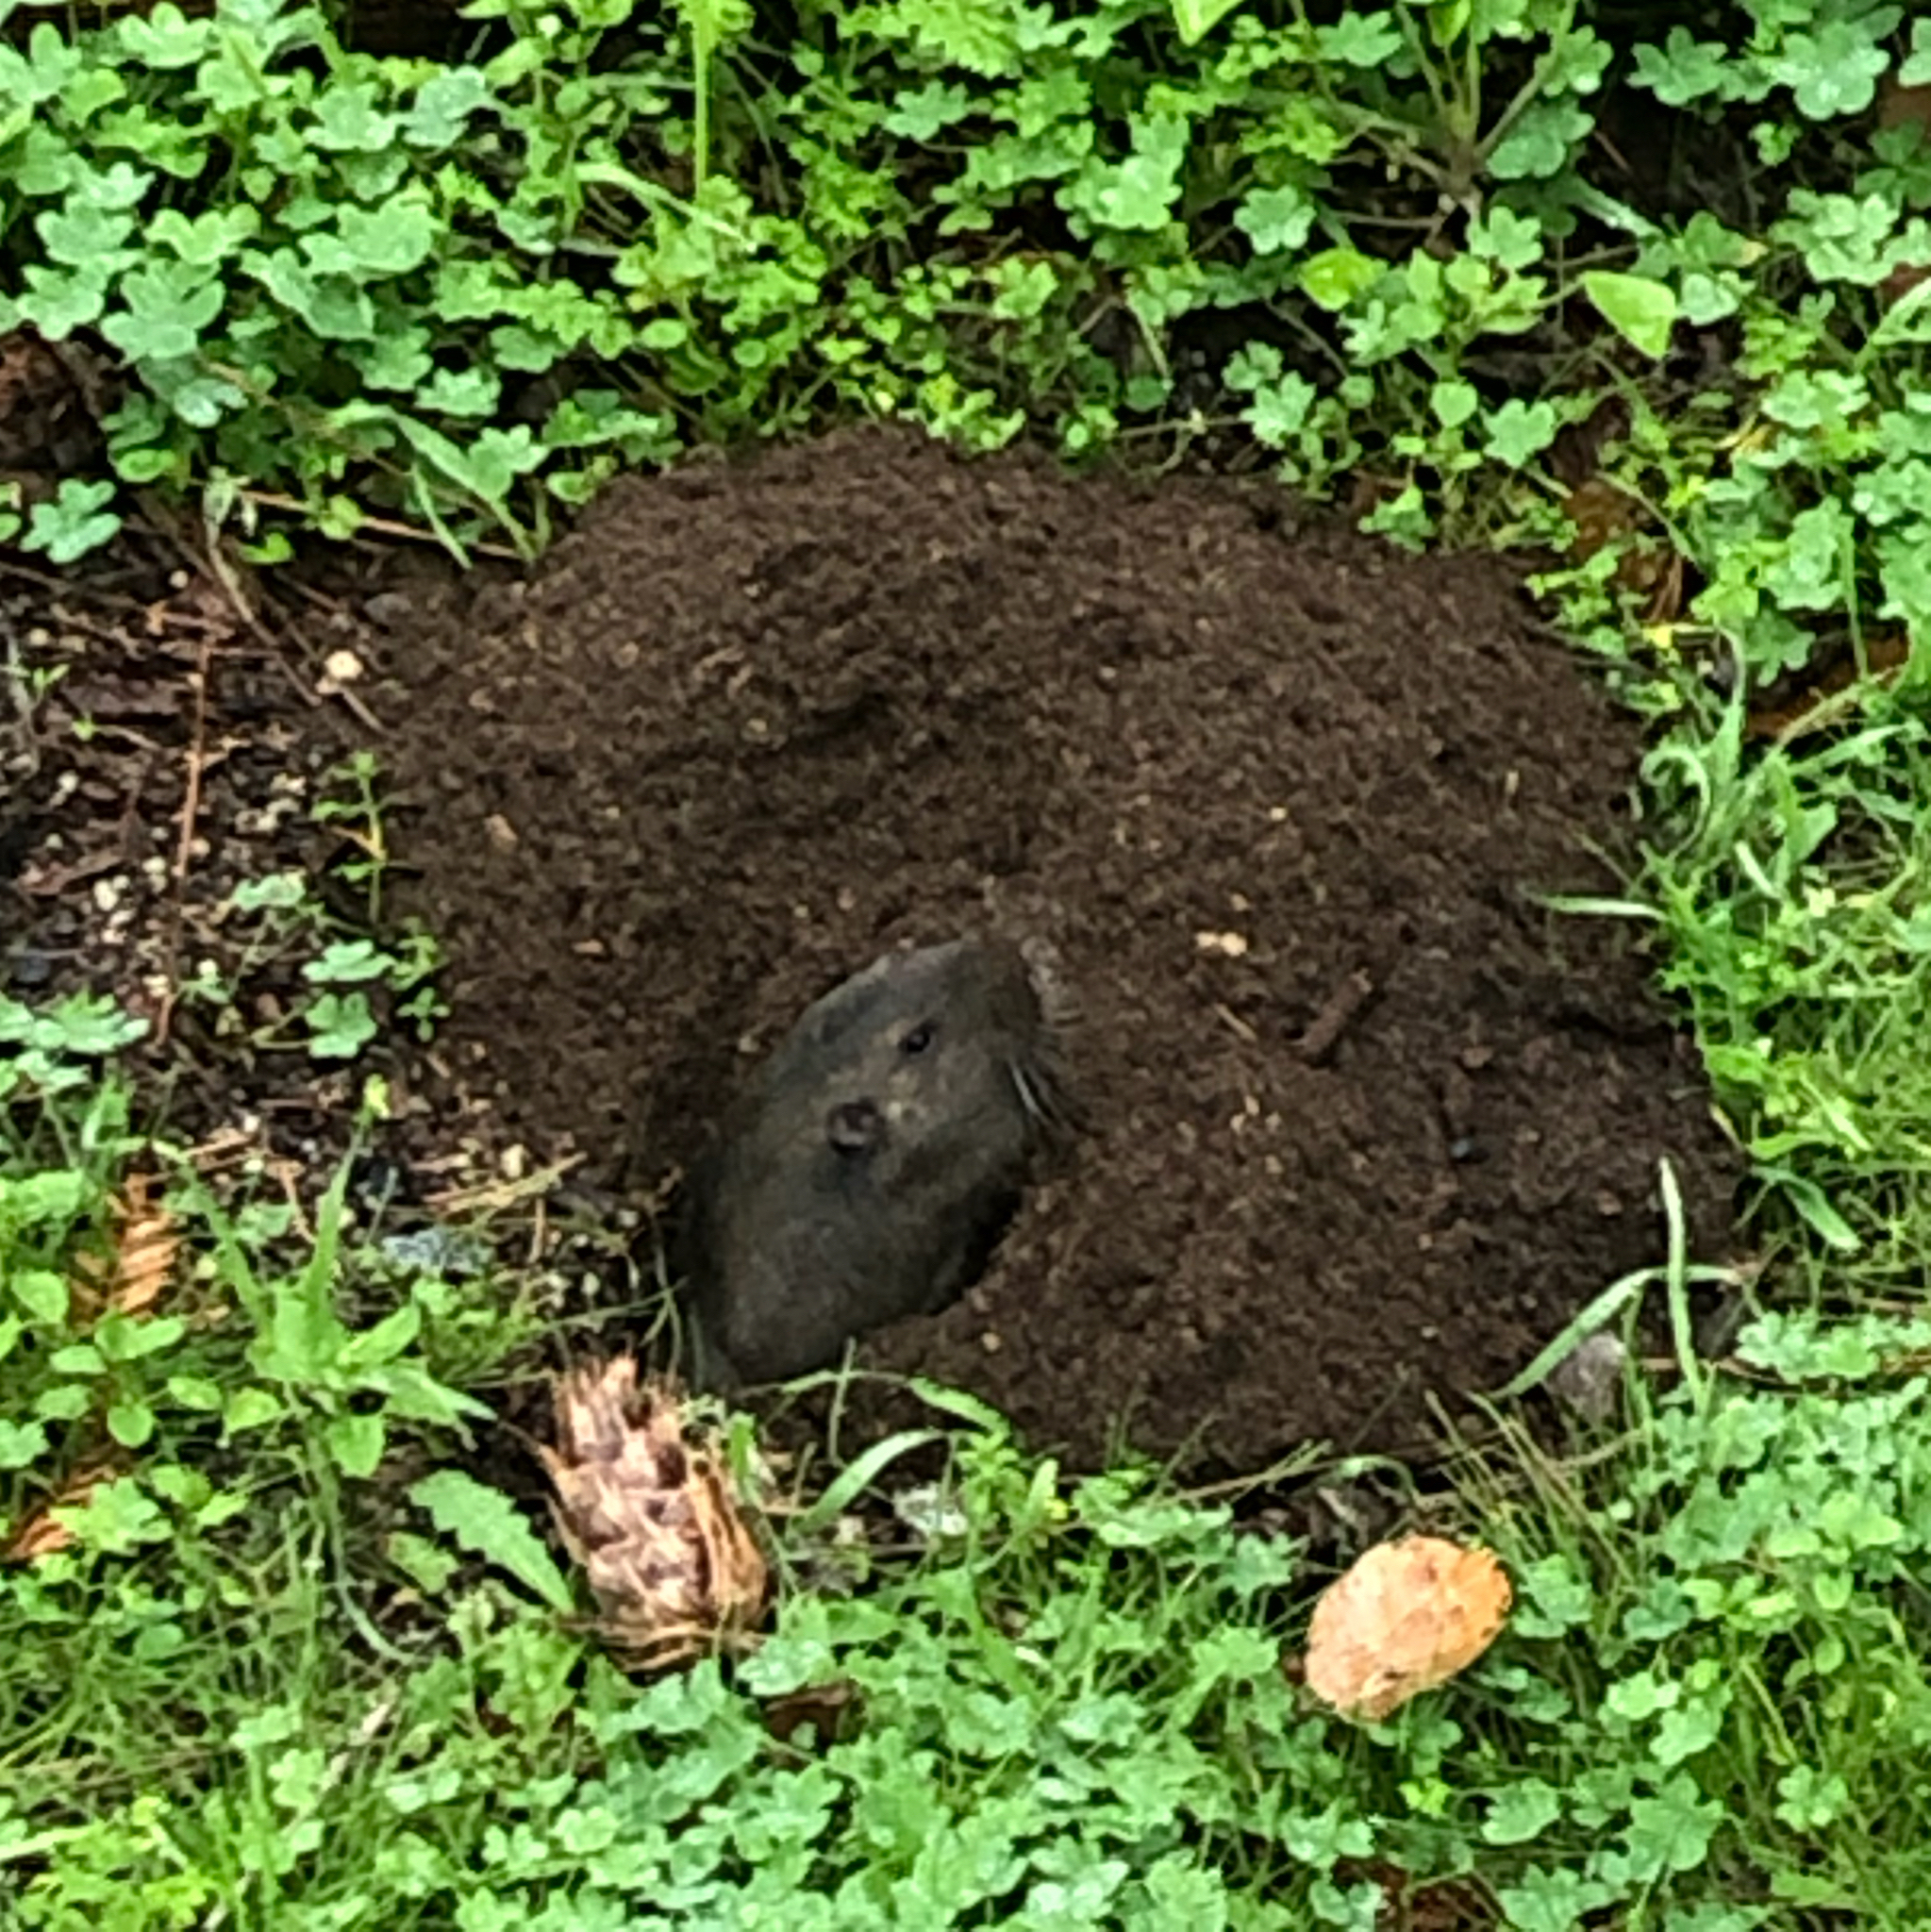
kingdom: Animalia
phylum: Chordata
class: Mammalia
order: Rodentia
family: Geomyidae
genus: Thomomys
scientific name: Thomomys bottae
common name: Botta's pocket gopher
